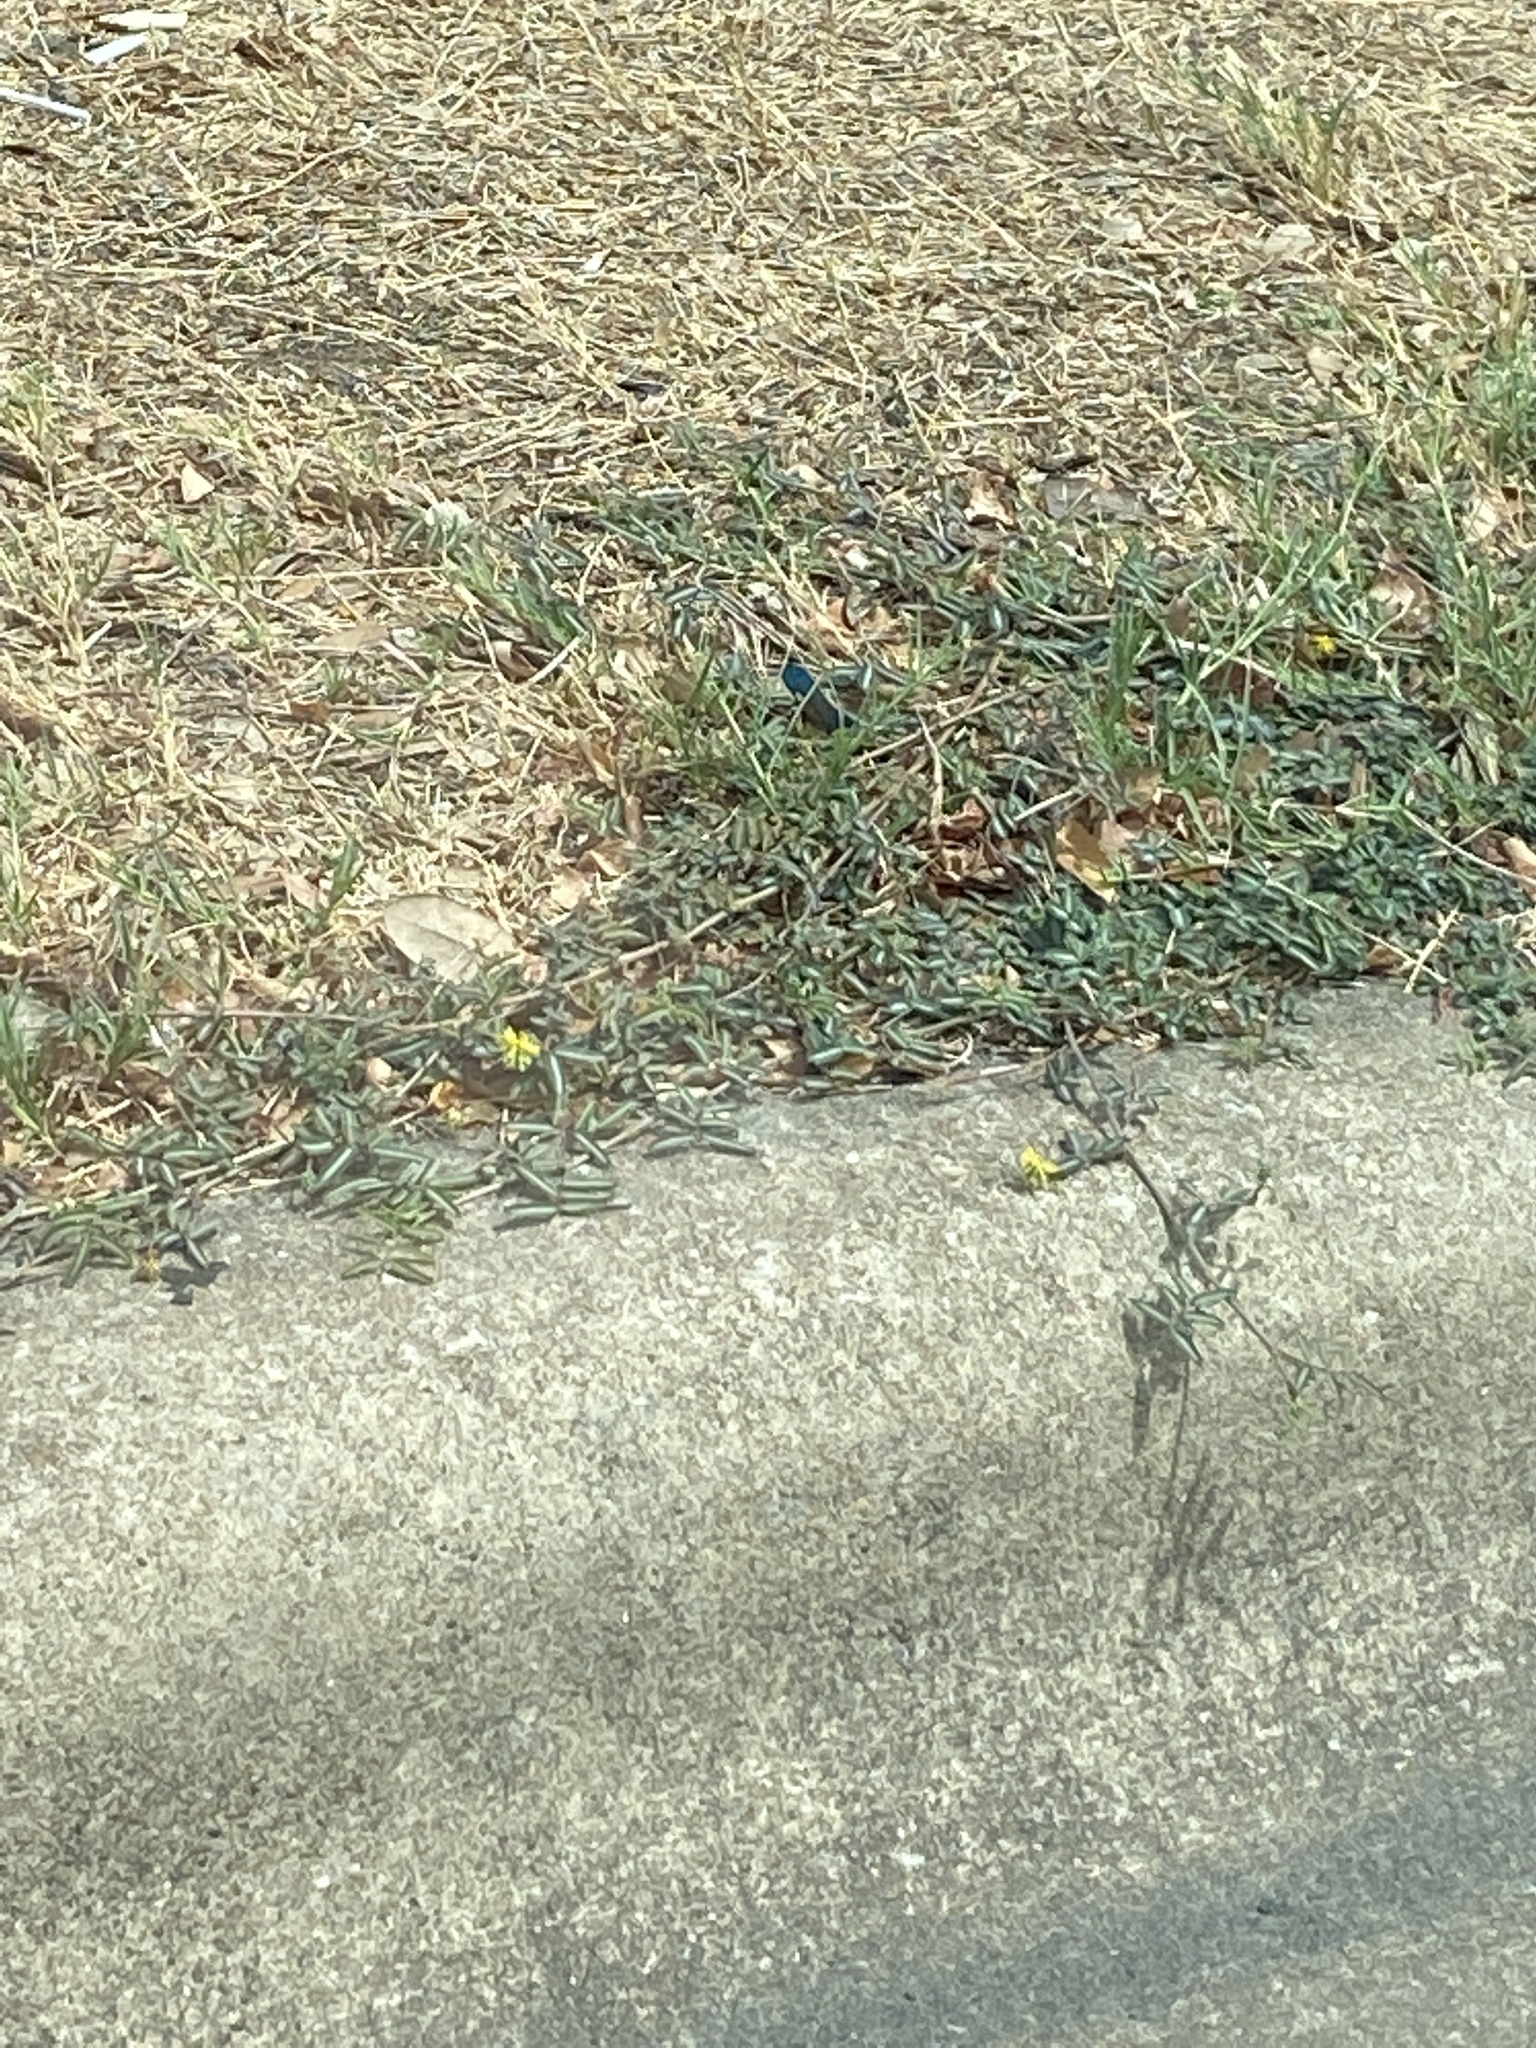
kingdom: Plantae
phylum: Tracheophyta
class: Magnoliopsida
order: Fabales
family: Fabaceae
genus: Neptunia
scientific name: Neptunia pubescens
